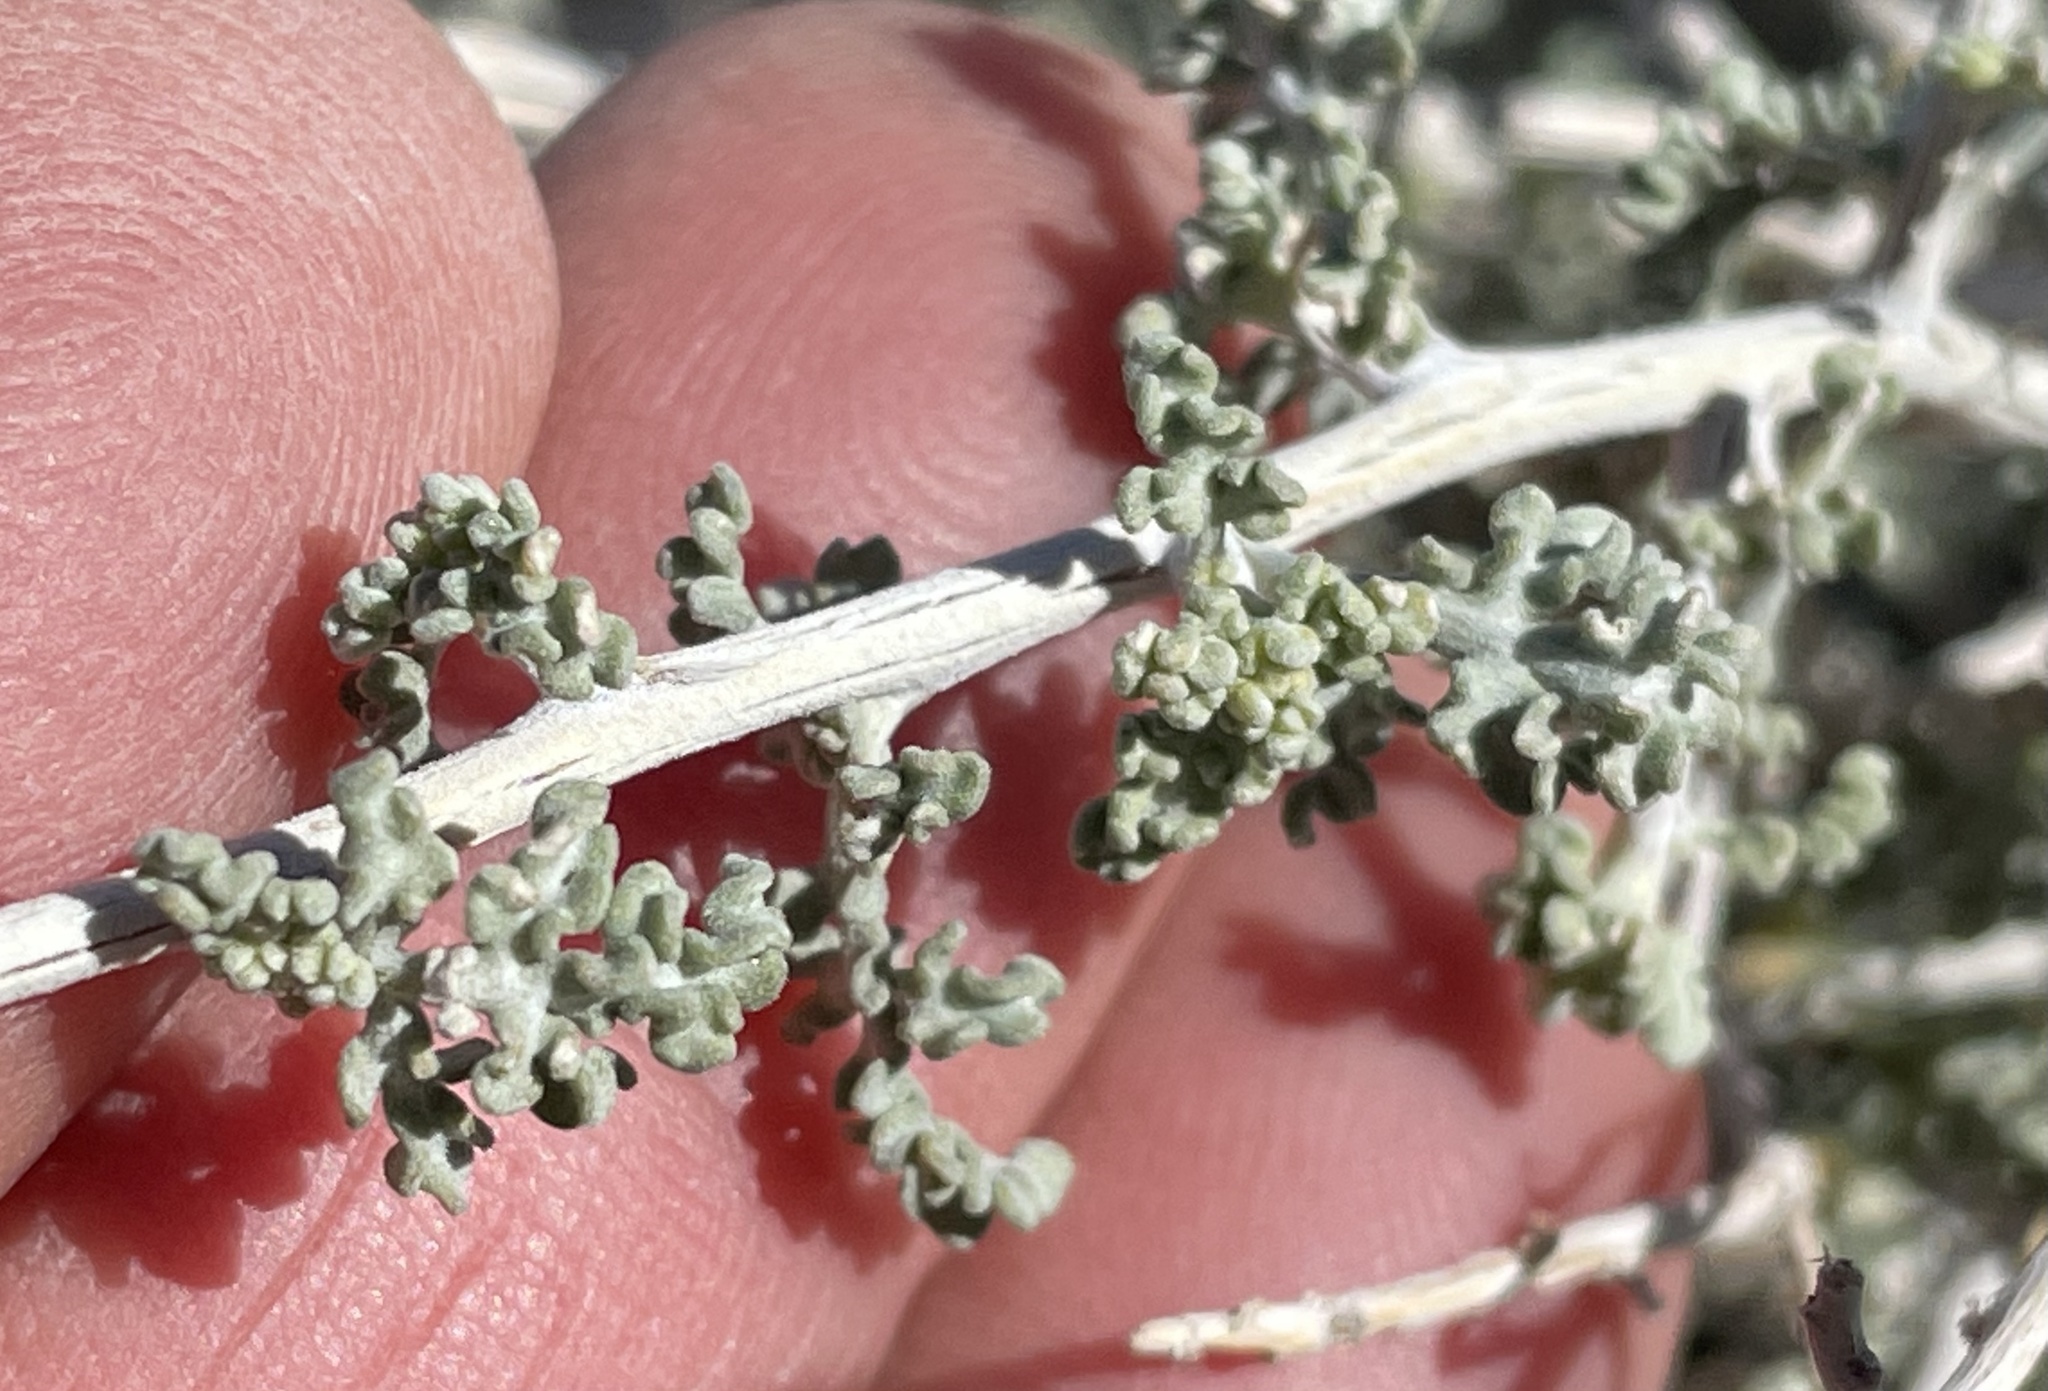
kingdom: Plantae
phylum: Tracheophyta
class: Magnoliopsida
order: Asterales
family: Asteraceae
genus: Ambrosia
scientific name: Ambrosia dumosa
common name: Bur-sage
